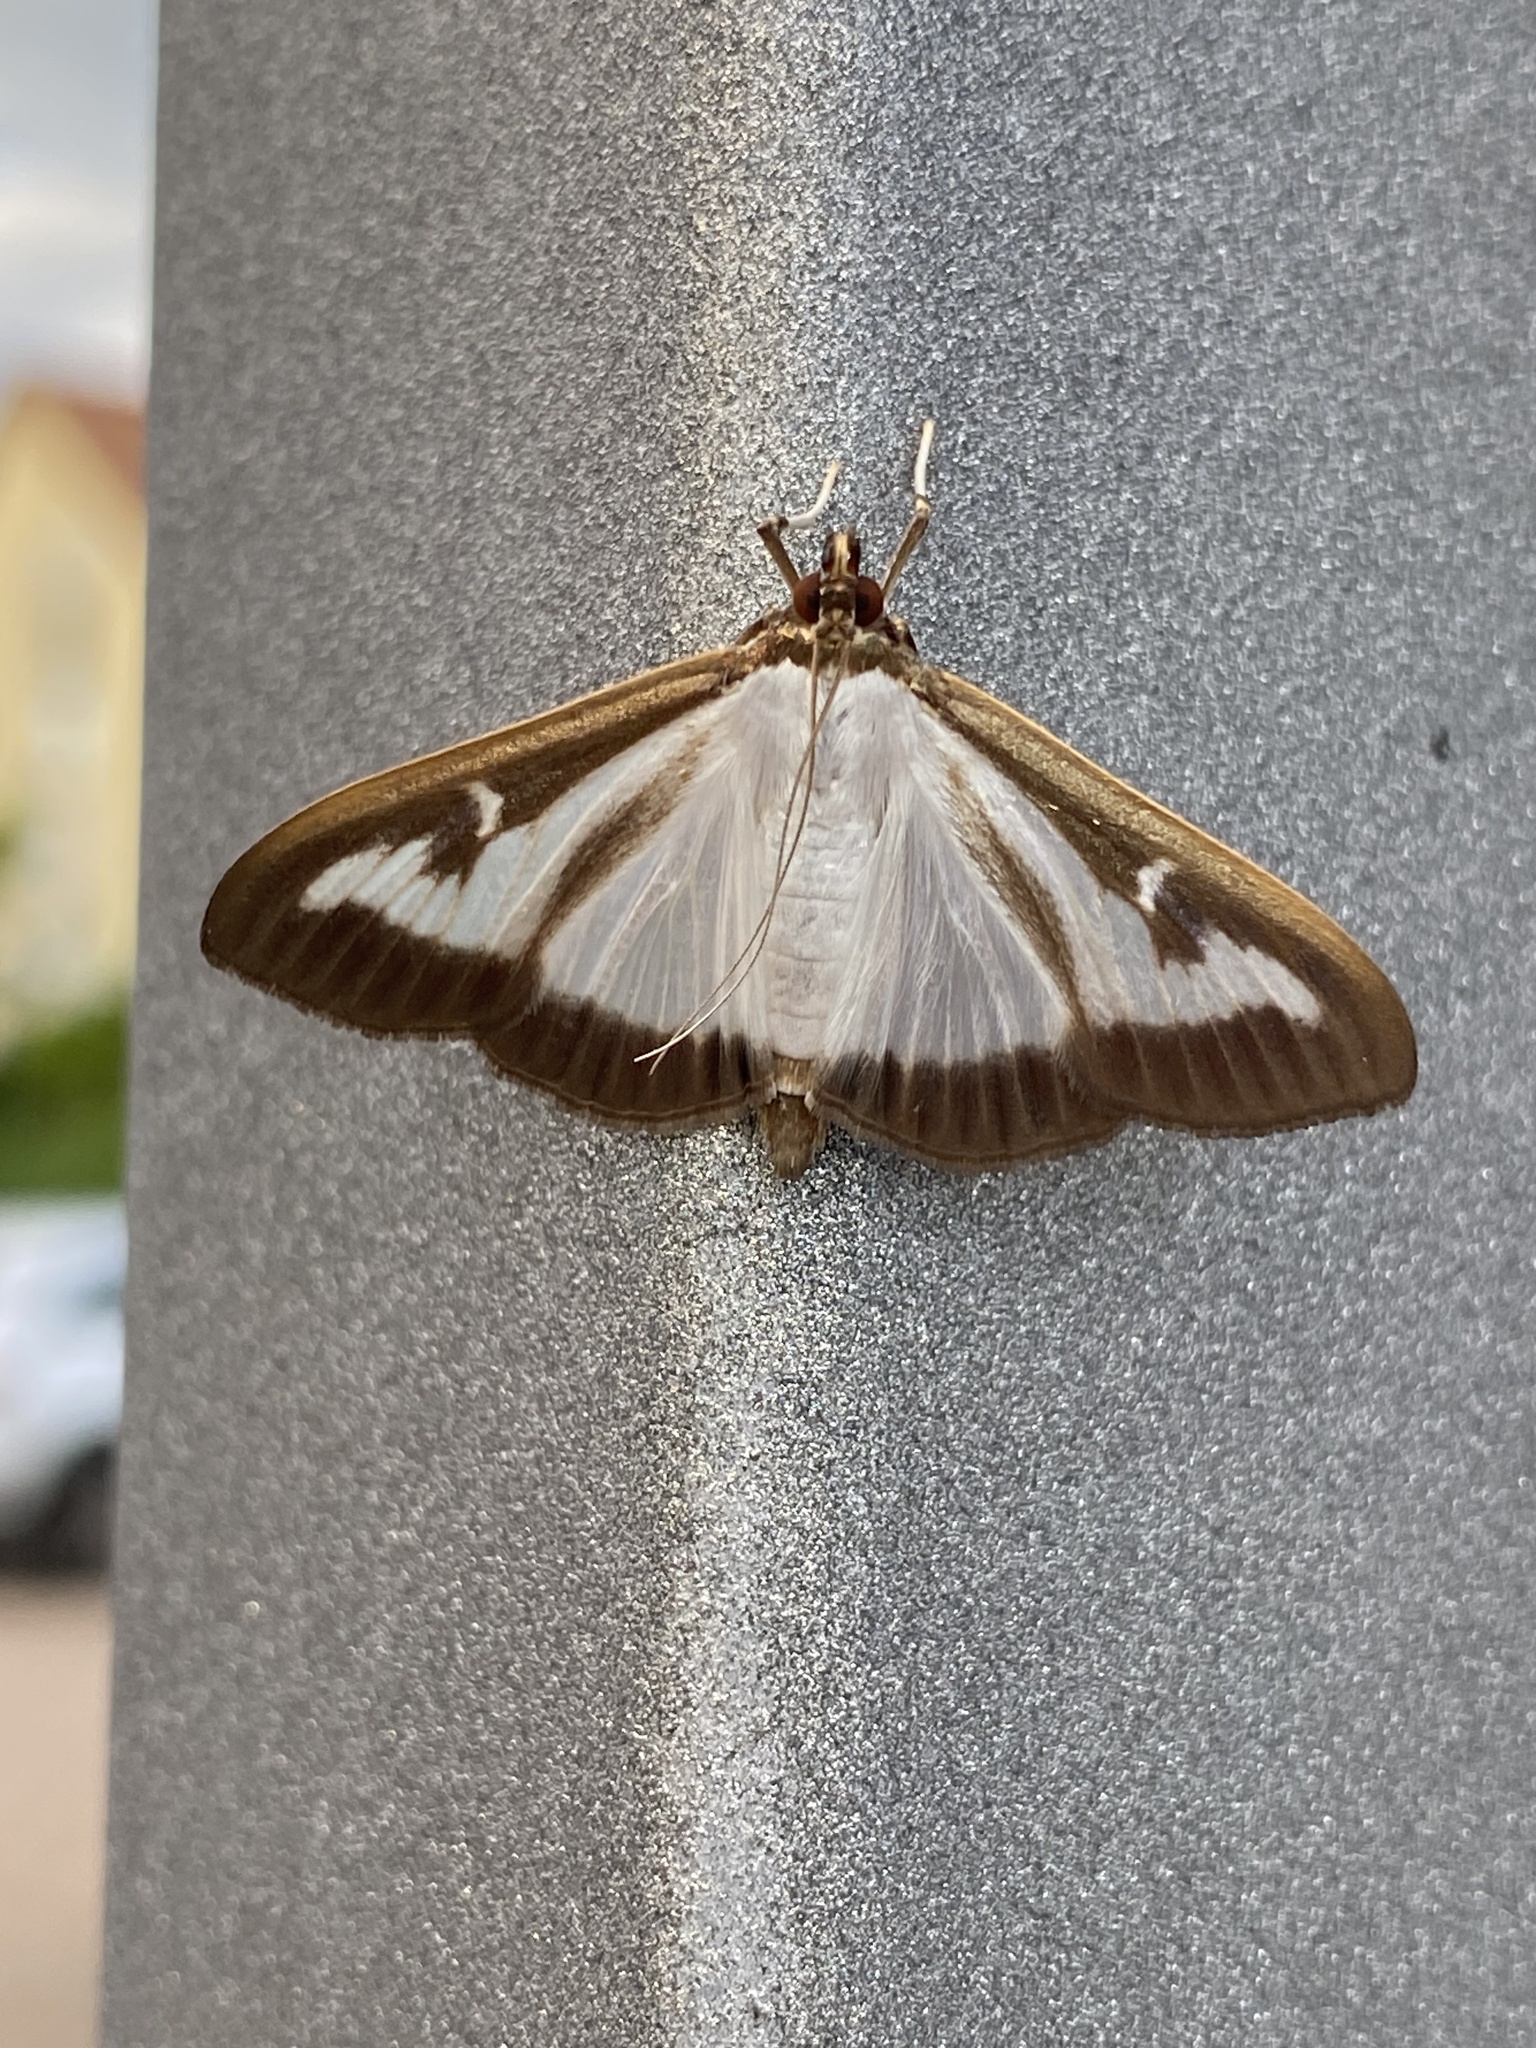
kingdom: Animalia
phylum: Arthropoda
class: Insecta
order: Lepidoptera
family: Crambidae
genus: Cydalima
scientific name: Cydalima perspectalis
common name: Box tree moth
